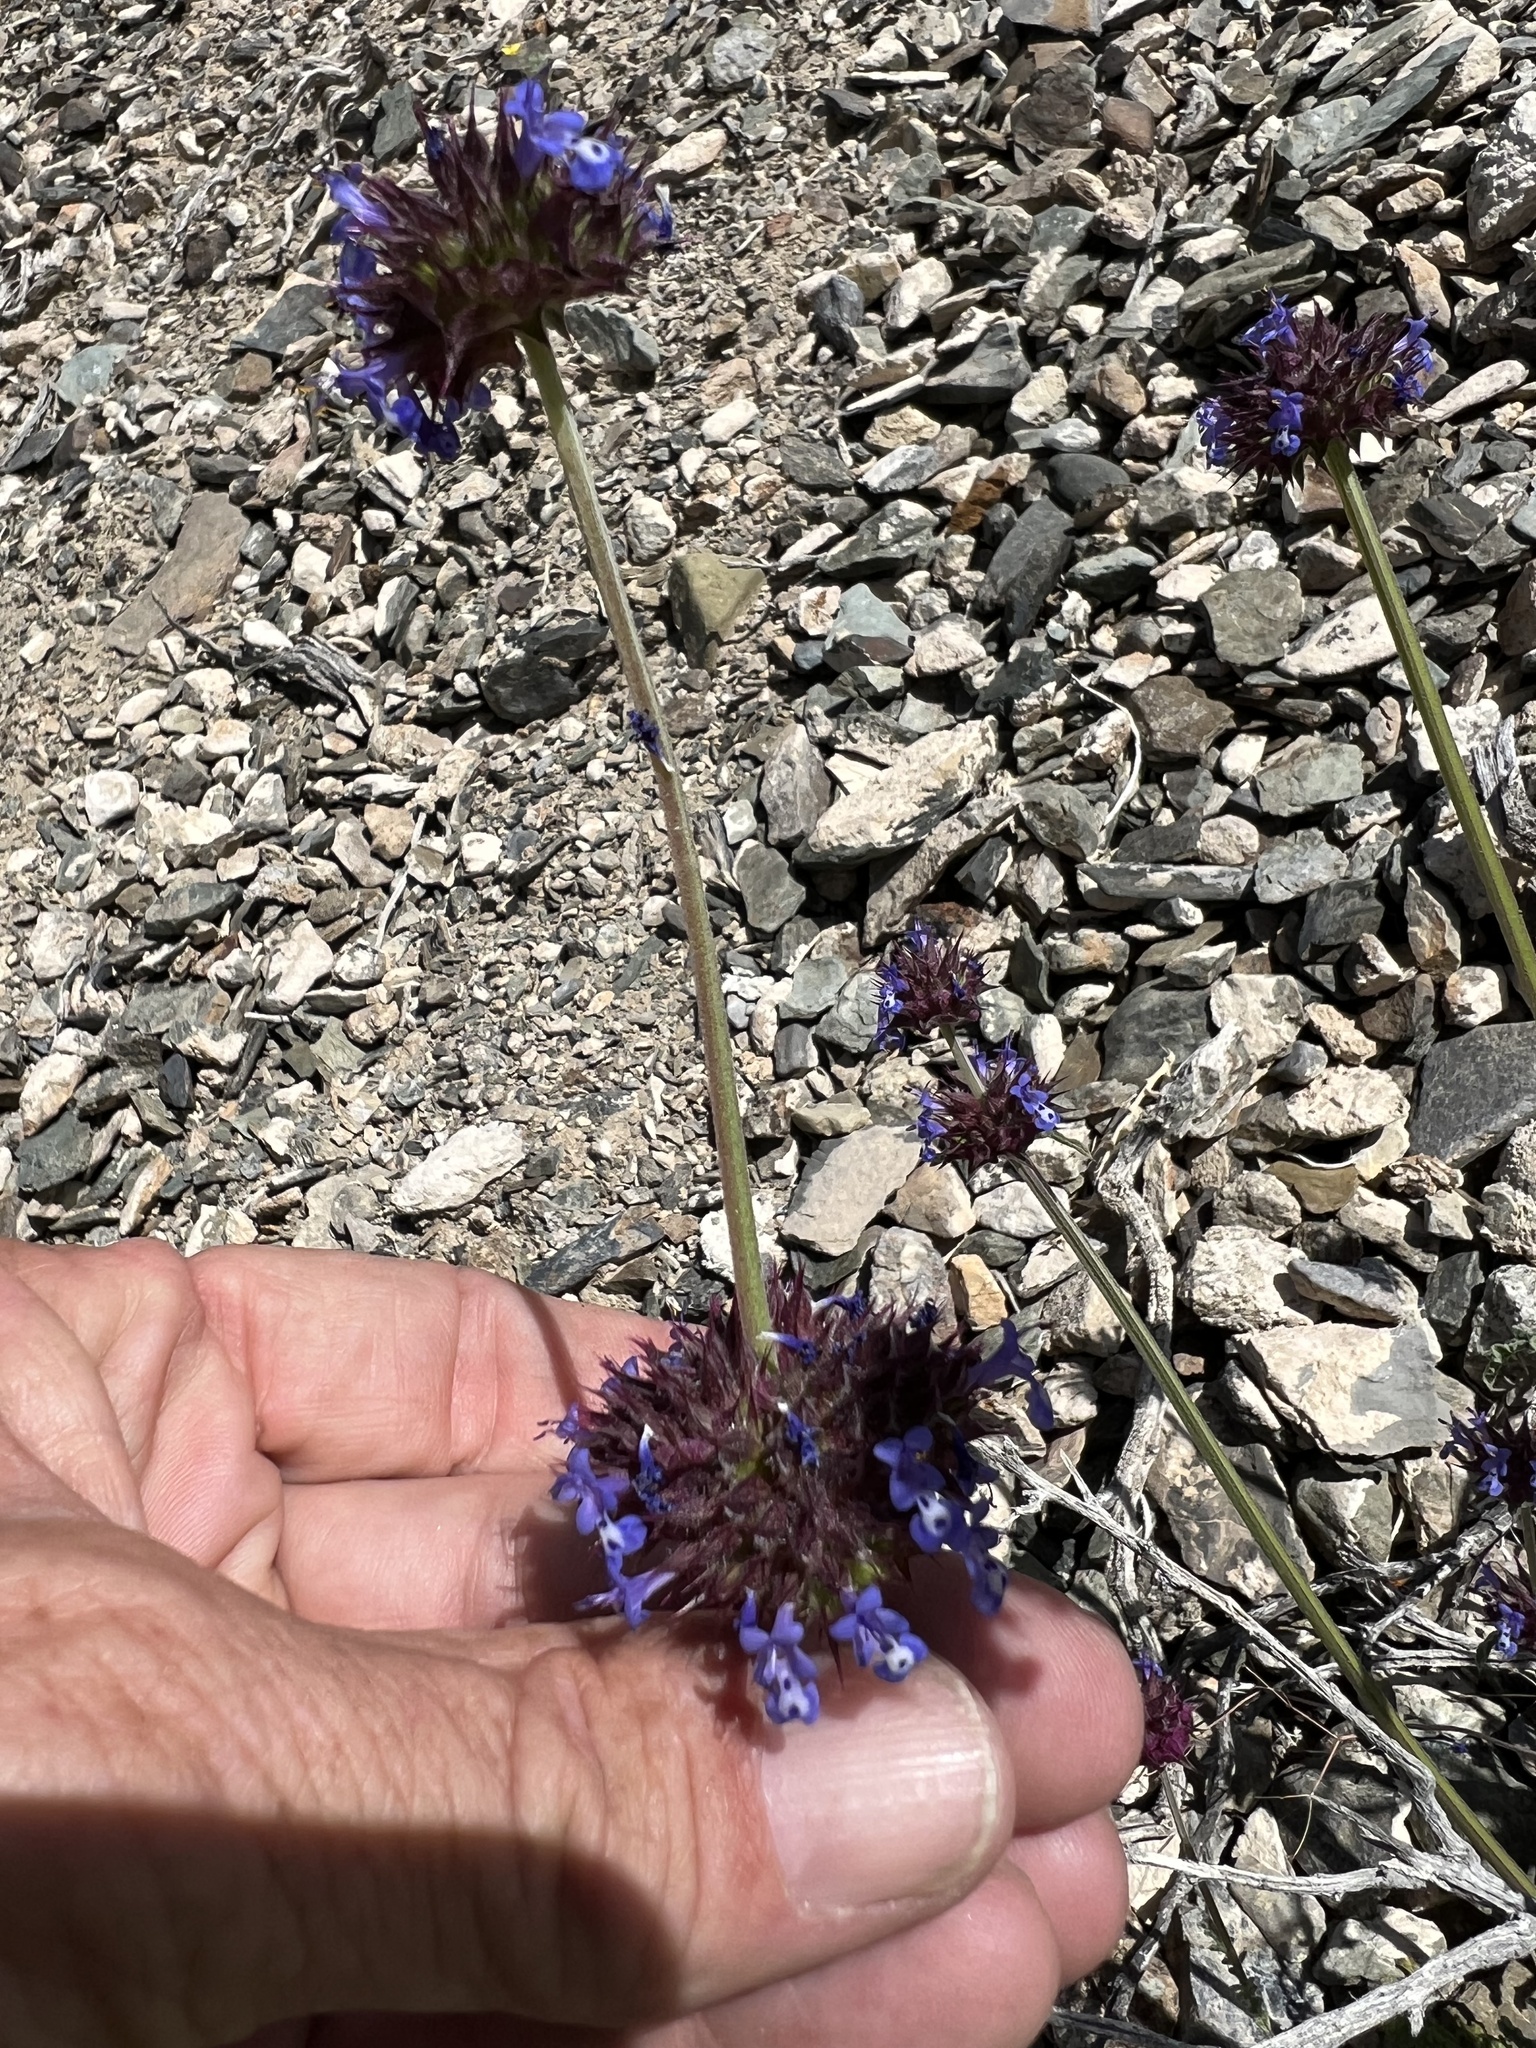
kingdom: Plantae
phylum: Tracheophyta
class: Magnoliopsida
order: Lamiales
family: Lamiaceae
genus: Salvia
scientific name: Salvia columbariae
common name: Chia
